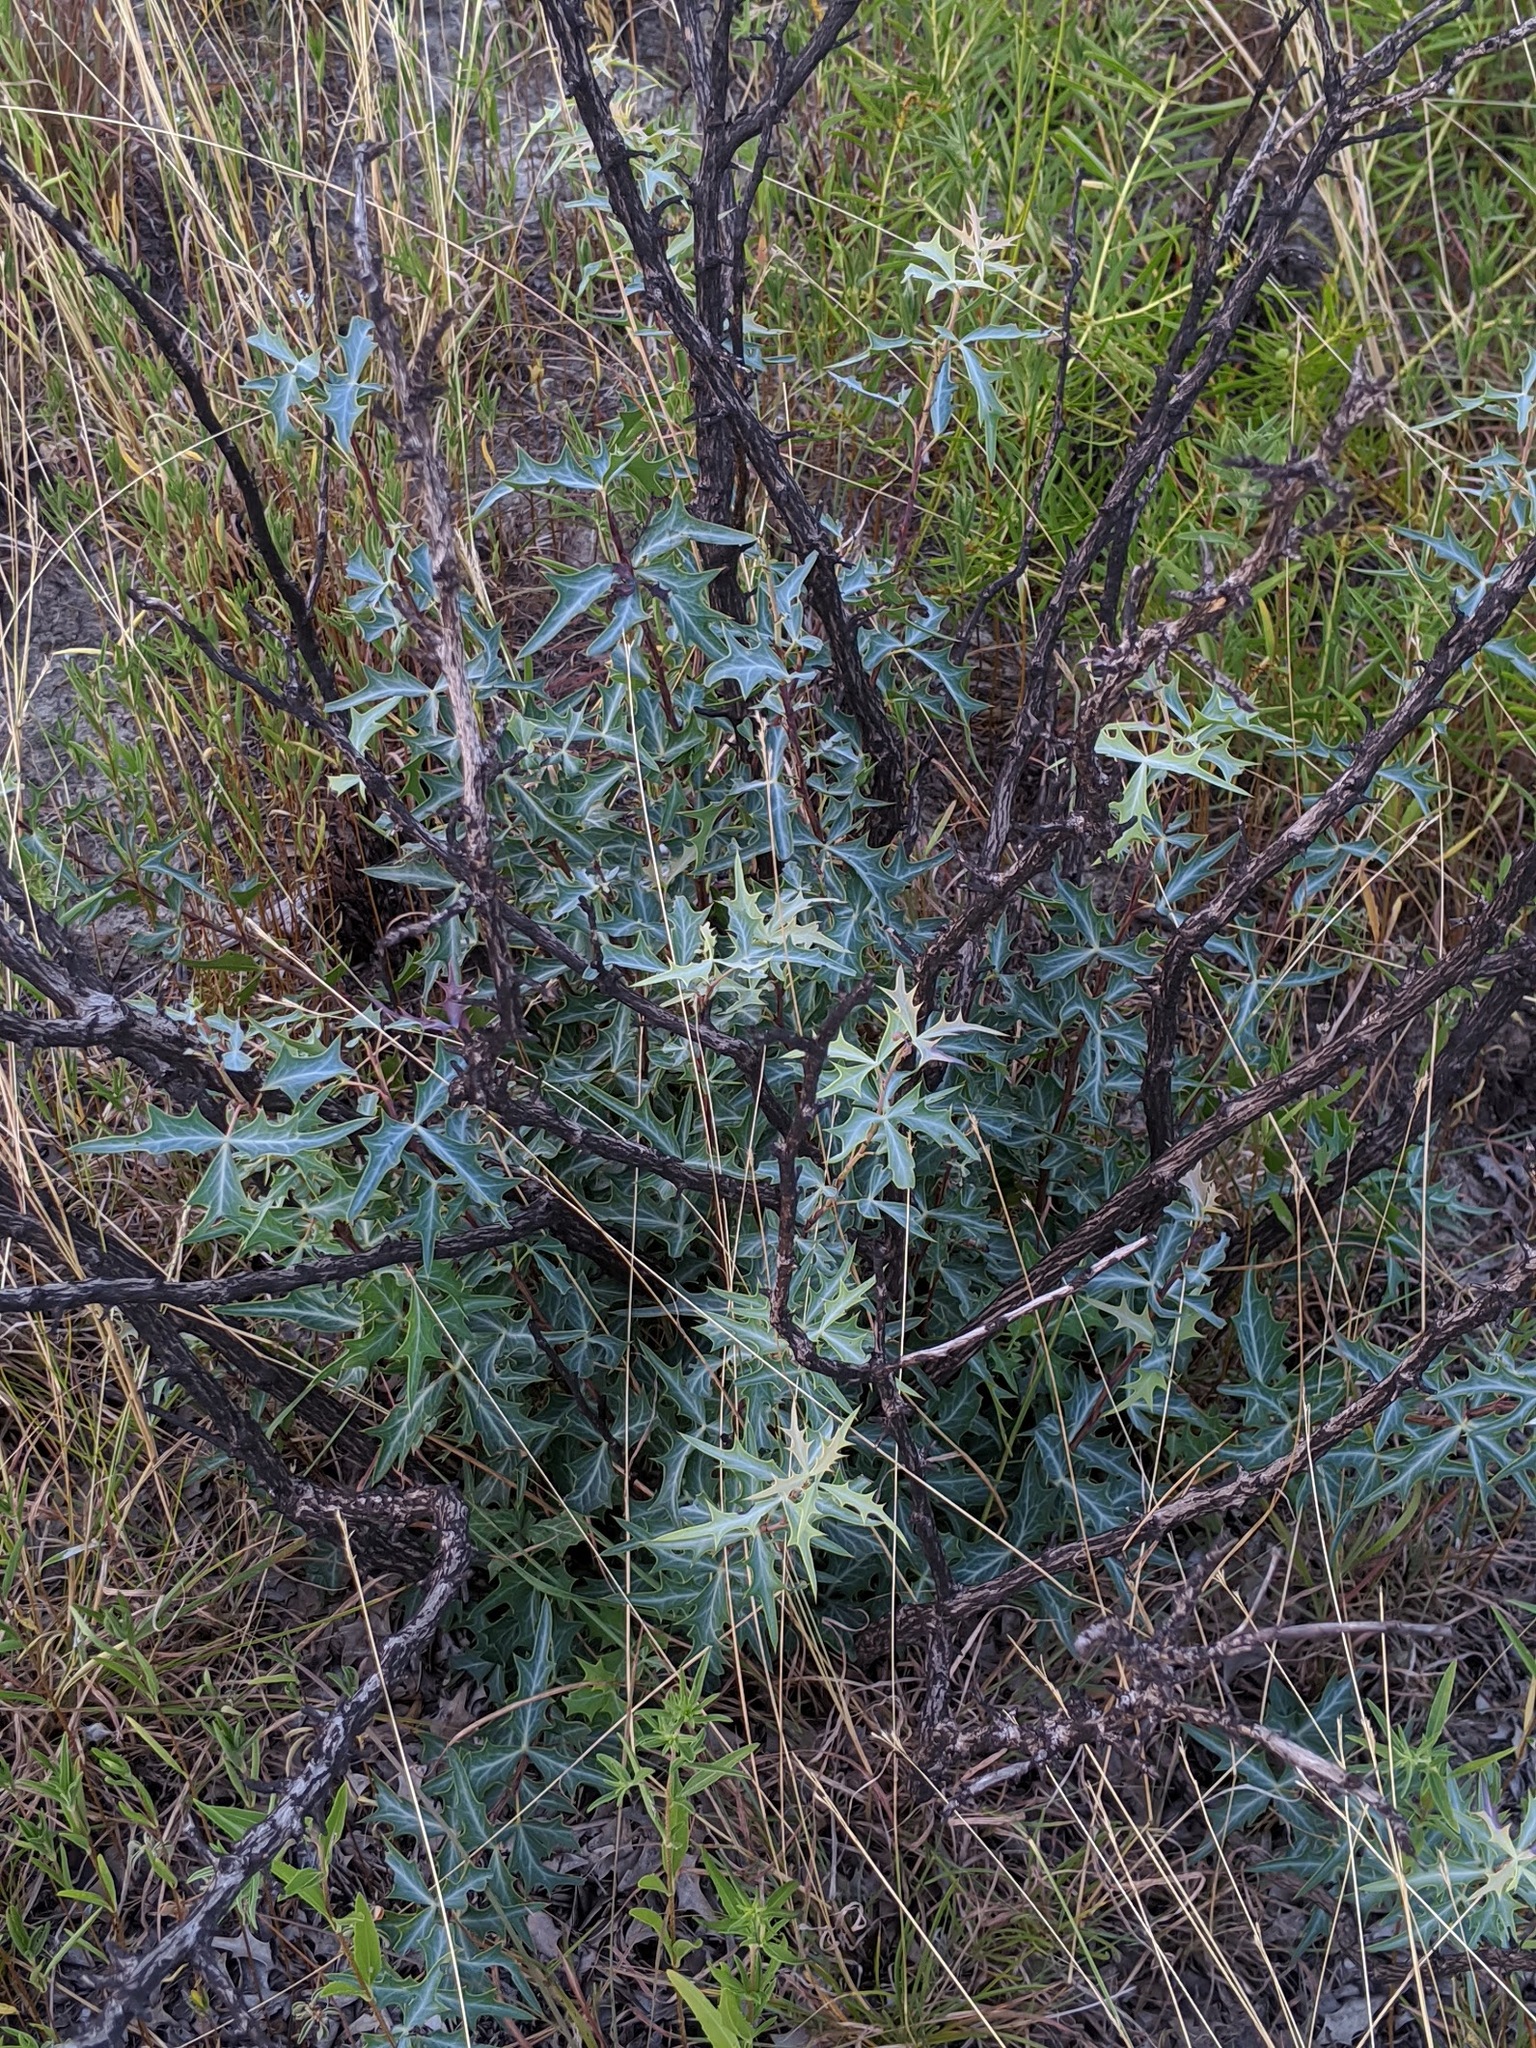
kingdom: Plantae
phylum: Tracheophyta
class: Magnoliopsida
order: Ranunculales
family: Berberidaceae
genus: Alloberberis
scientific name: Alloberberis trifoliolata
